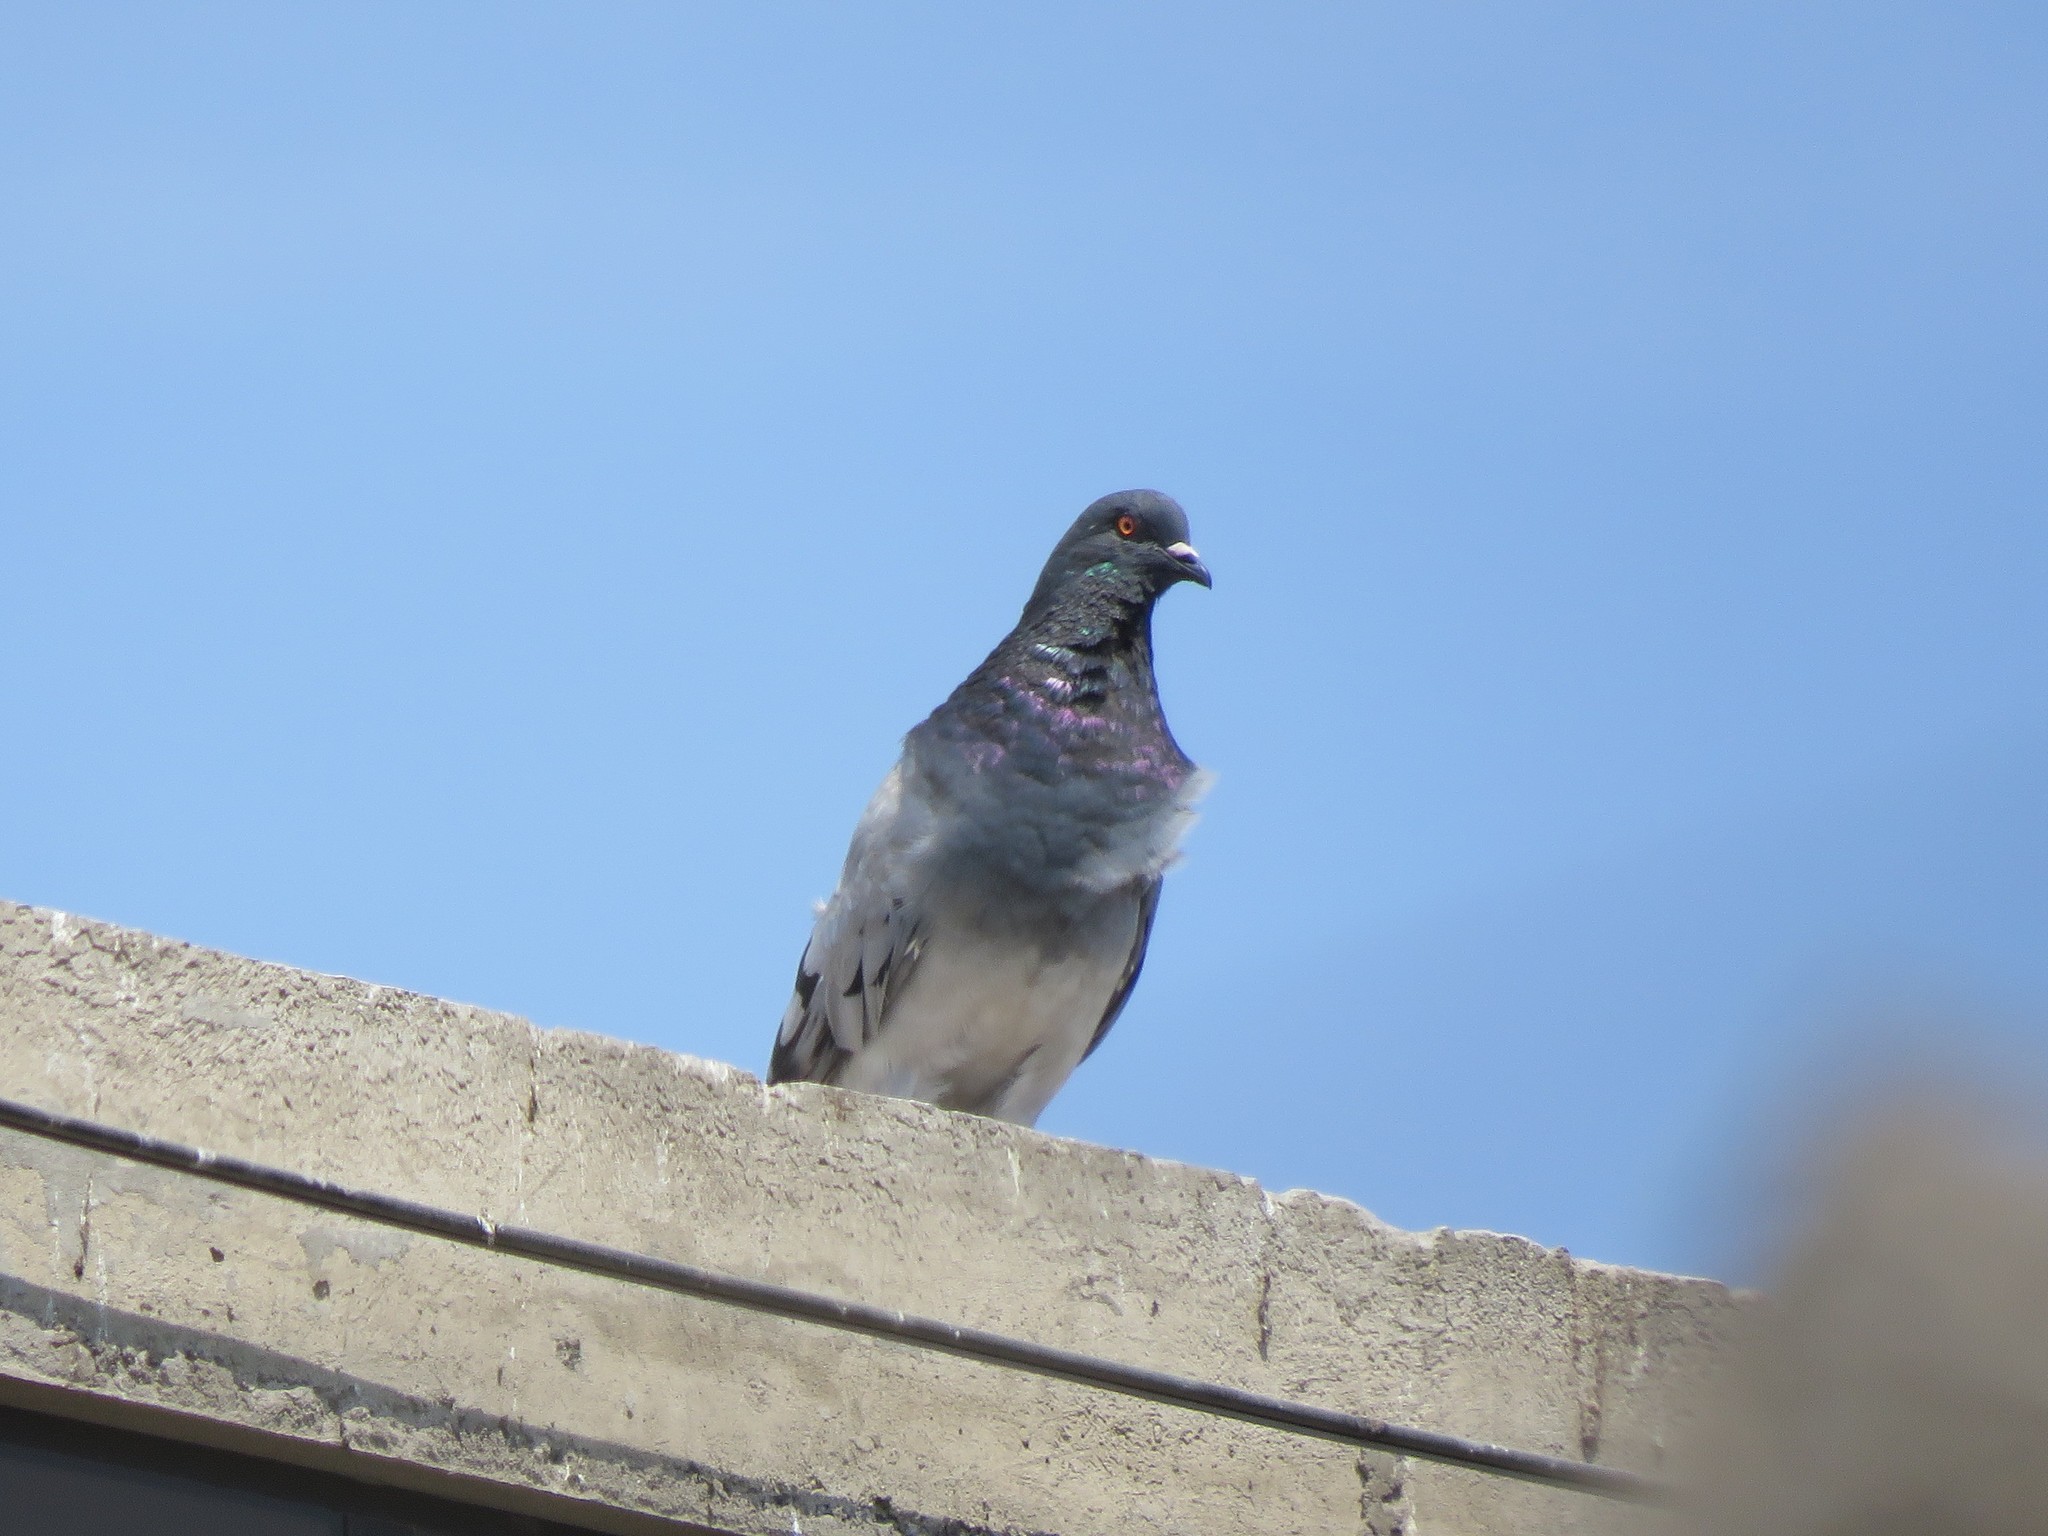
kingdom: Animalia
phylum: Chordata
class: Aves
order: Columbiformes
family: Columbidae
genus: Columba
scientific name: Columba livia
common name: Rock pigeon
